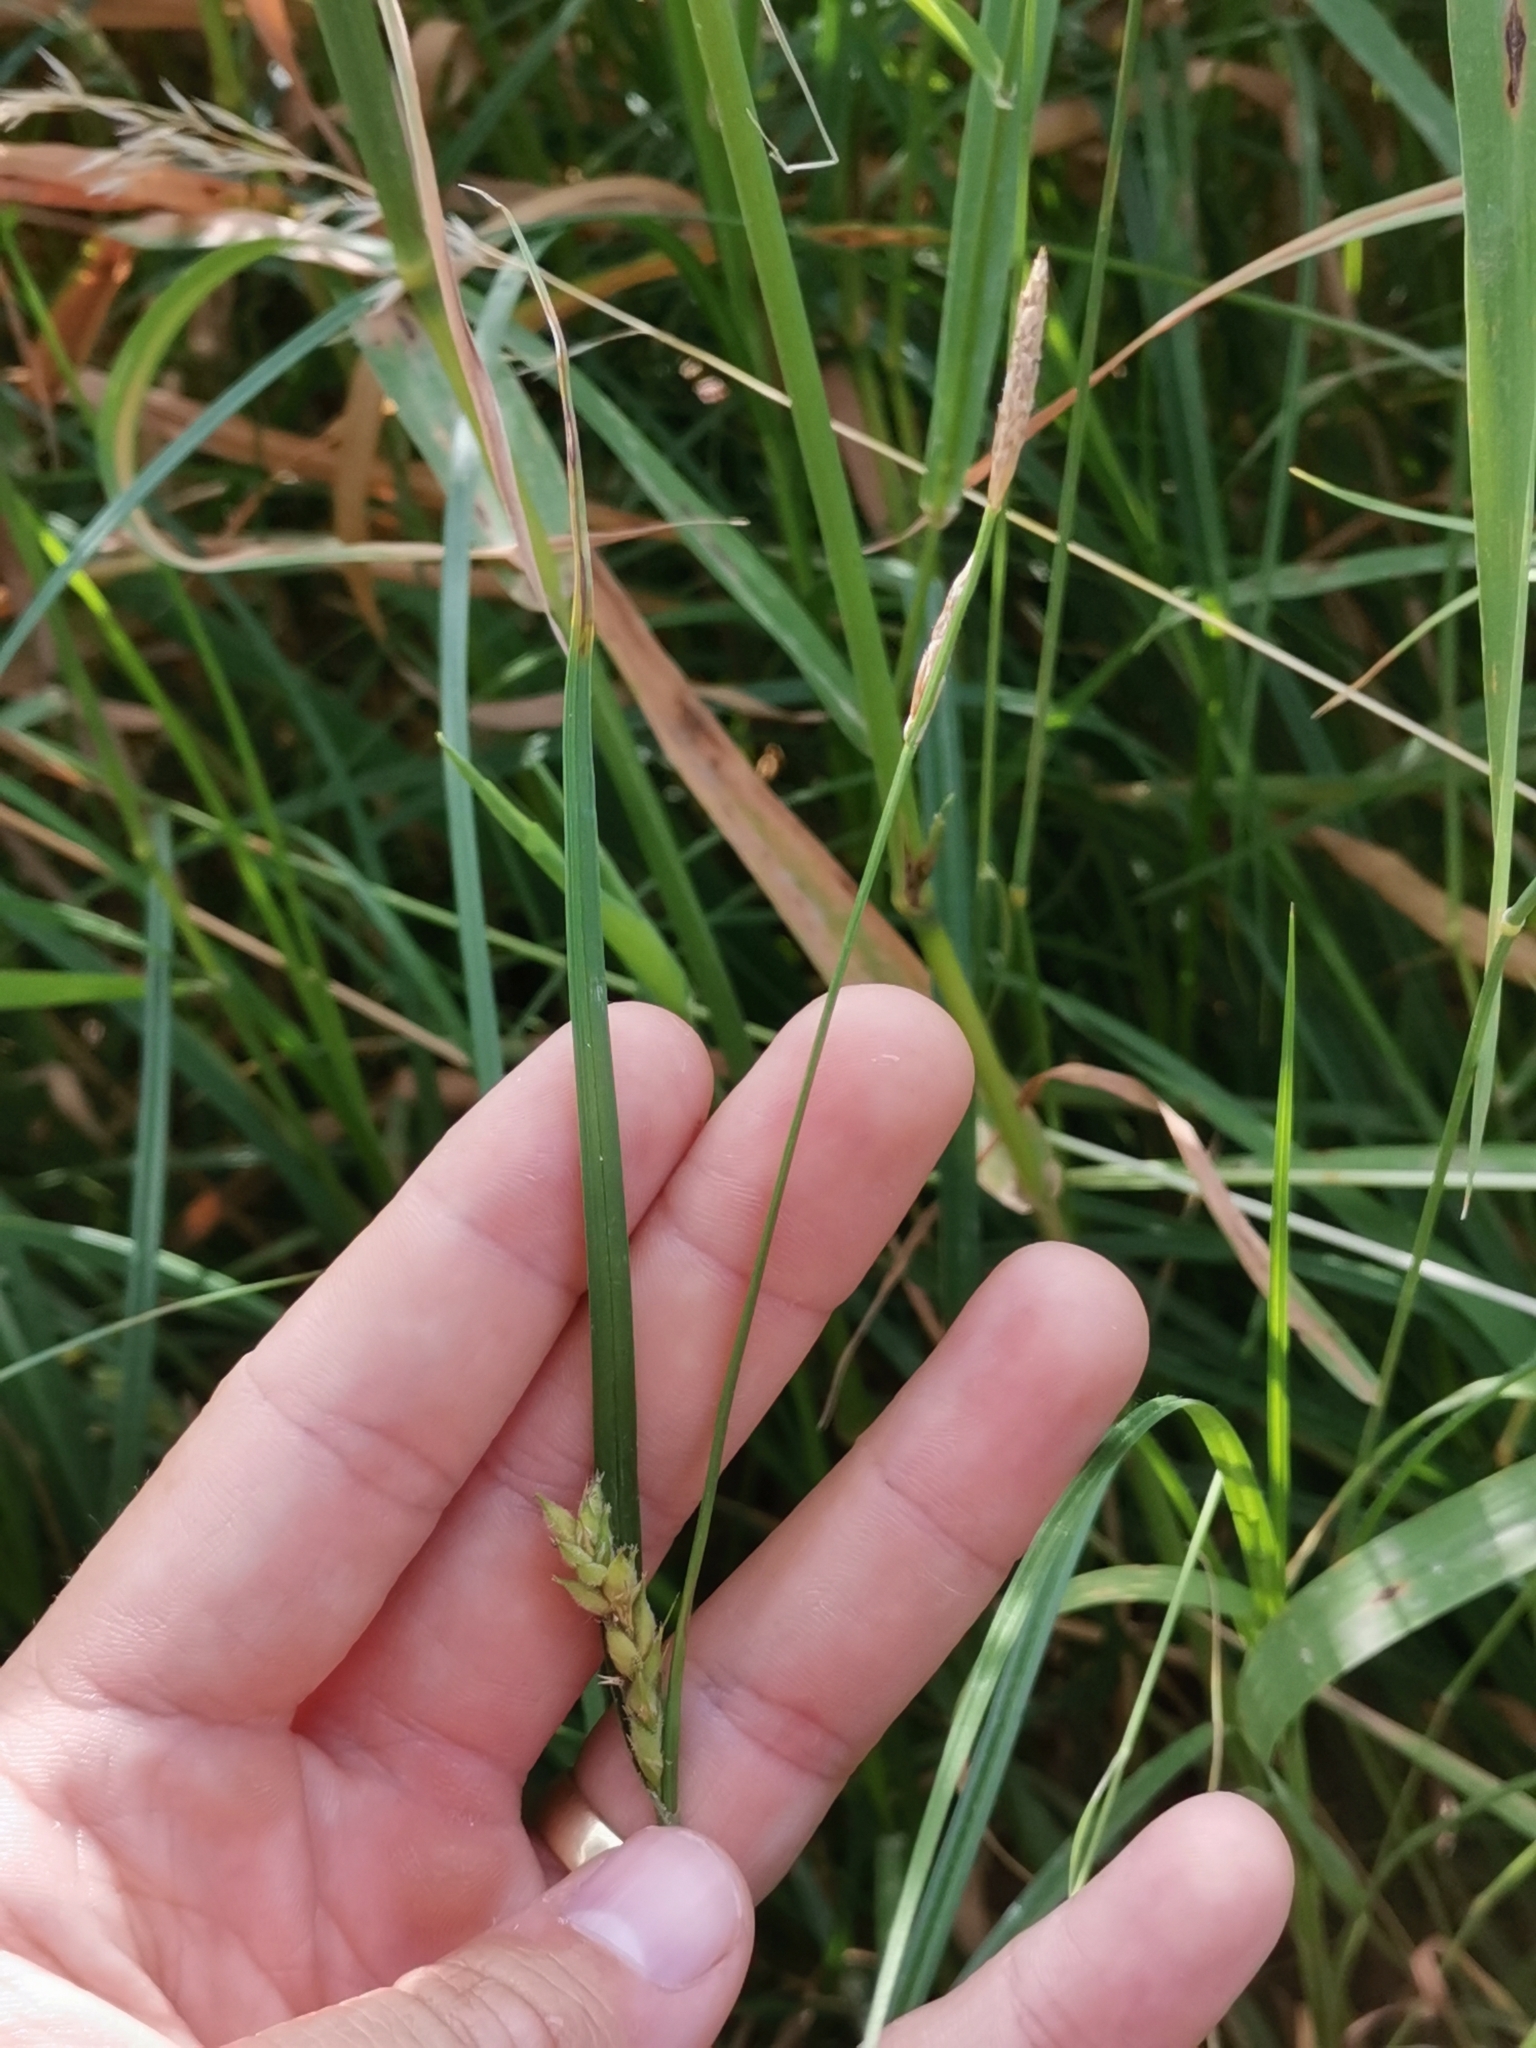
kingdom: Plantae
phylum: Tracheophyta
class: Liliopsida
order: Poales
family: Cyperaceae
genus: Carex
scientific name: Carex hirta
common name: Hairy sedge
